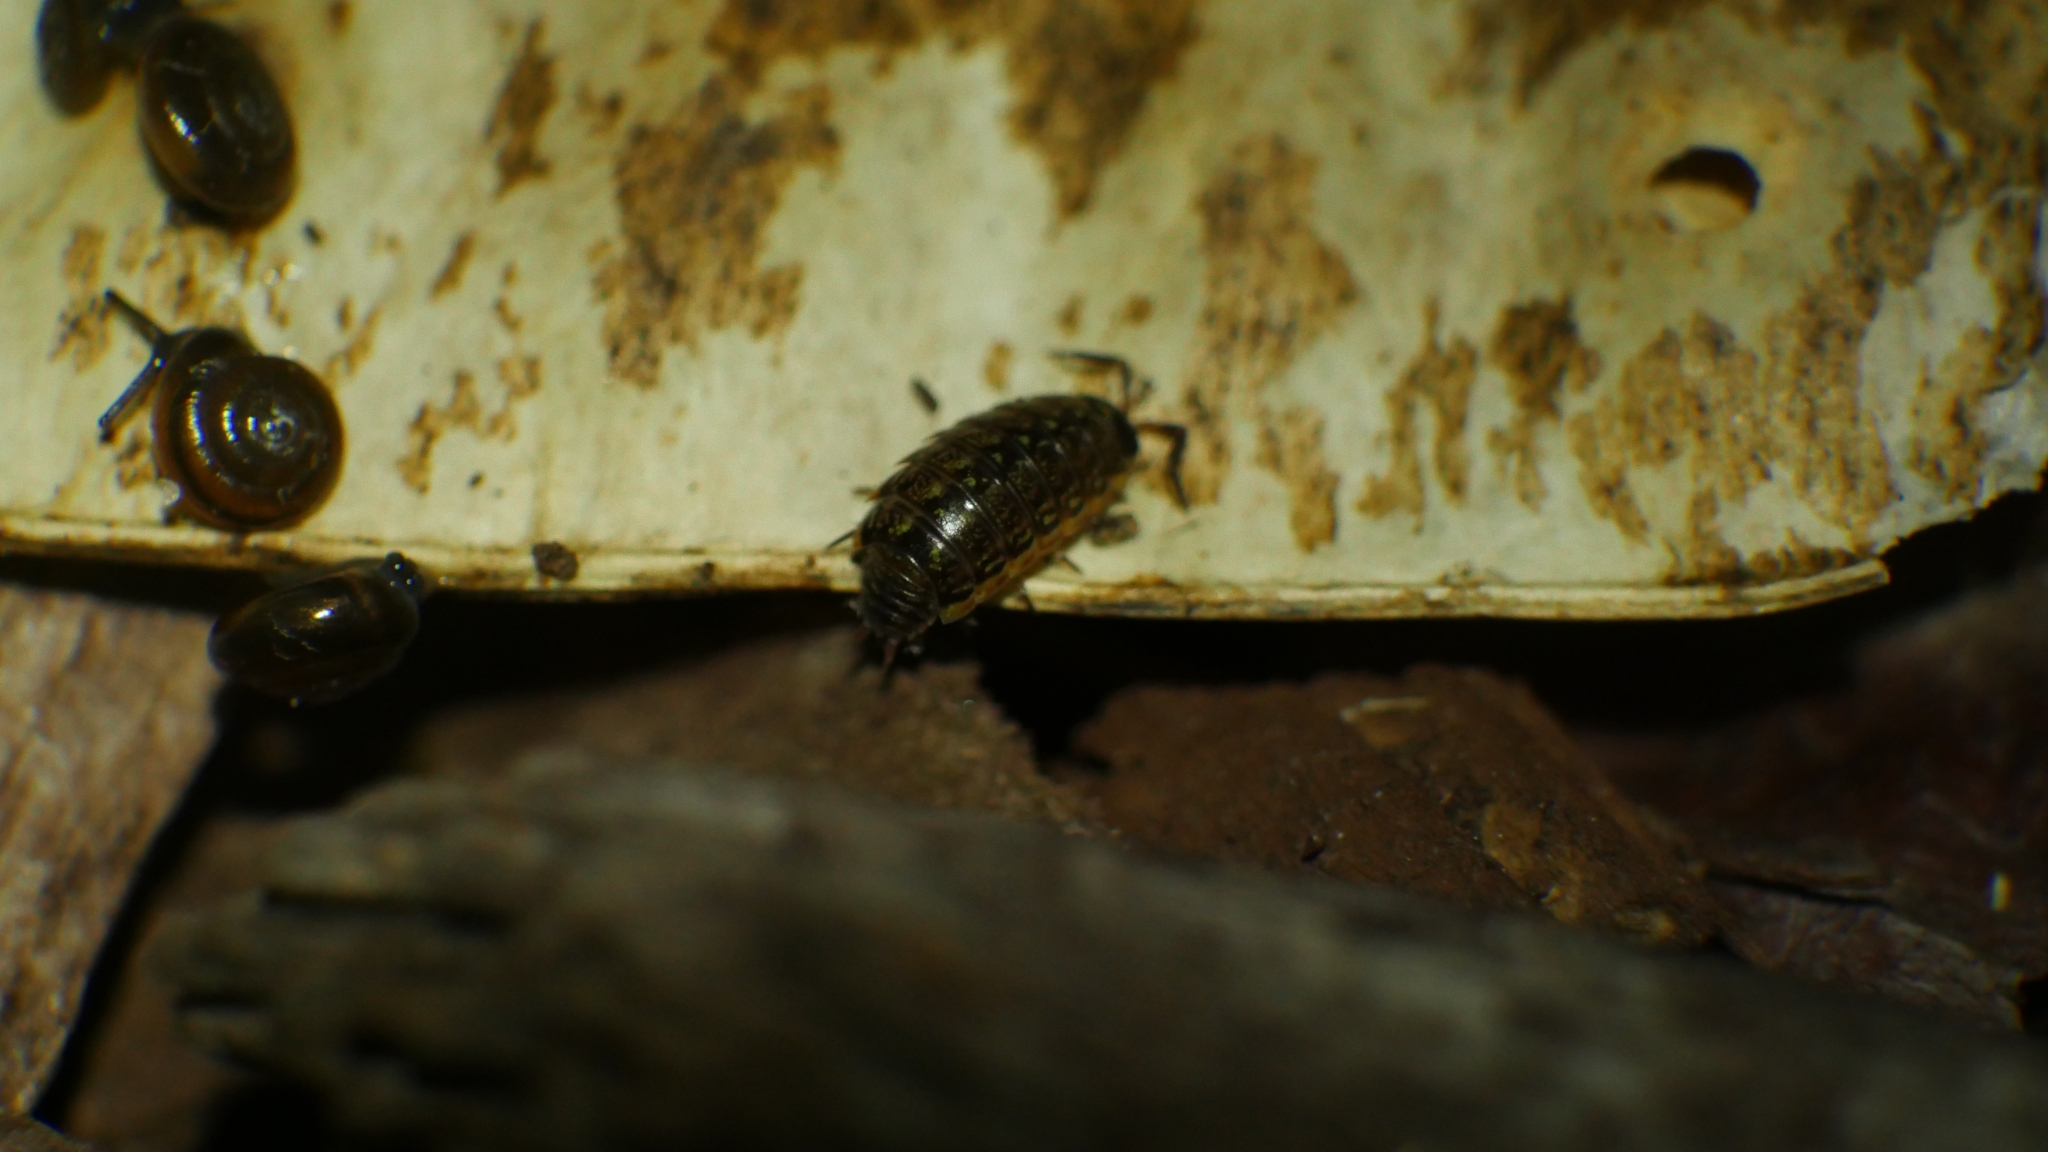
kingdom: Animalia
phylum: Arthropoda
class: Malacostraca
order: Isopoda
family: Philosciidae
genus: Philoscia
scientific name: Philoscia muscorum
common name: Common striped woodlouse
